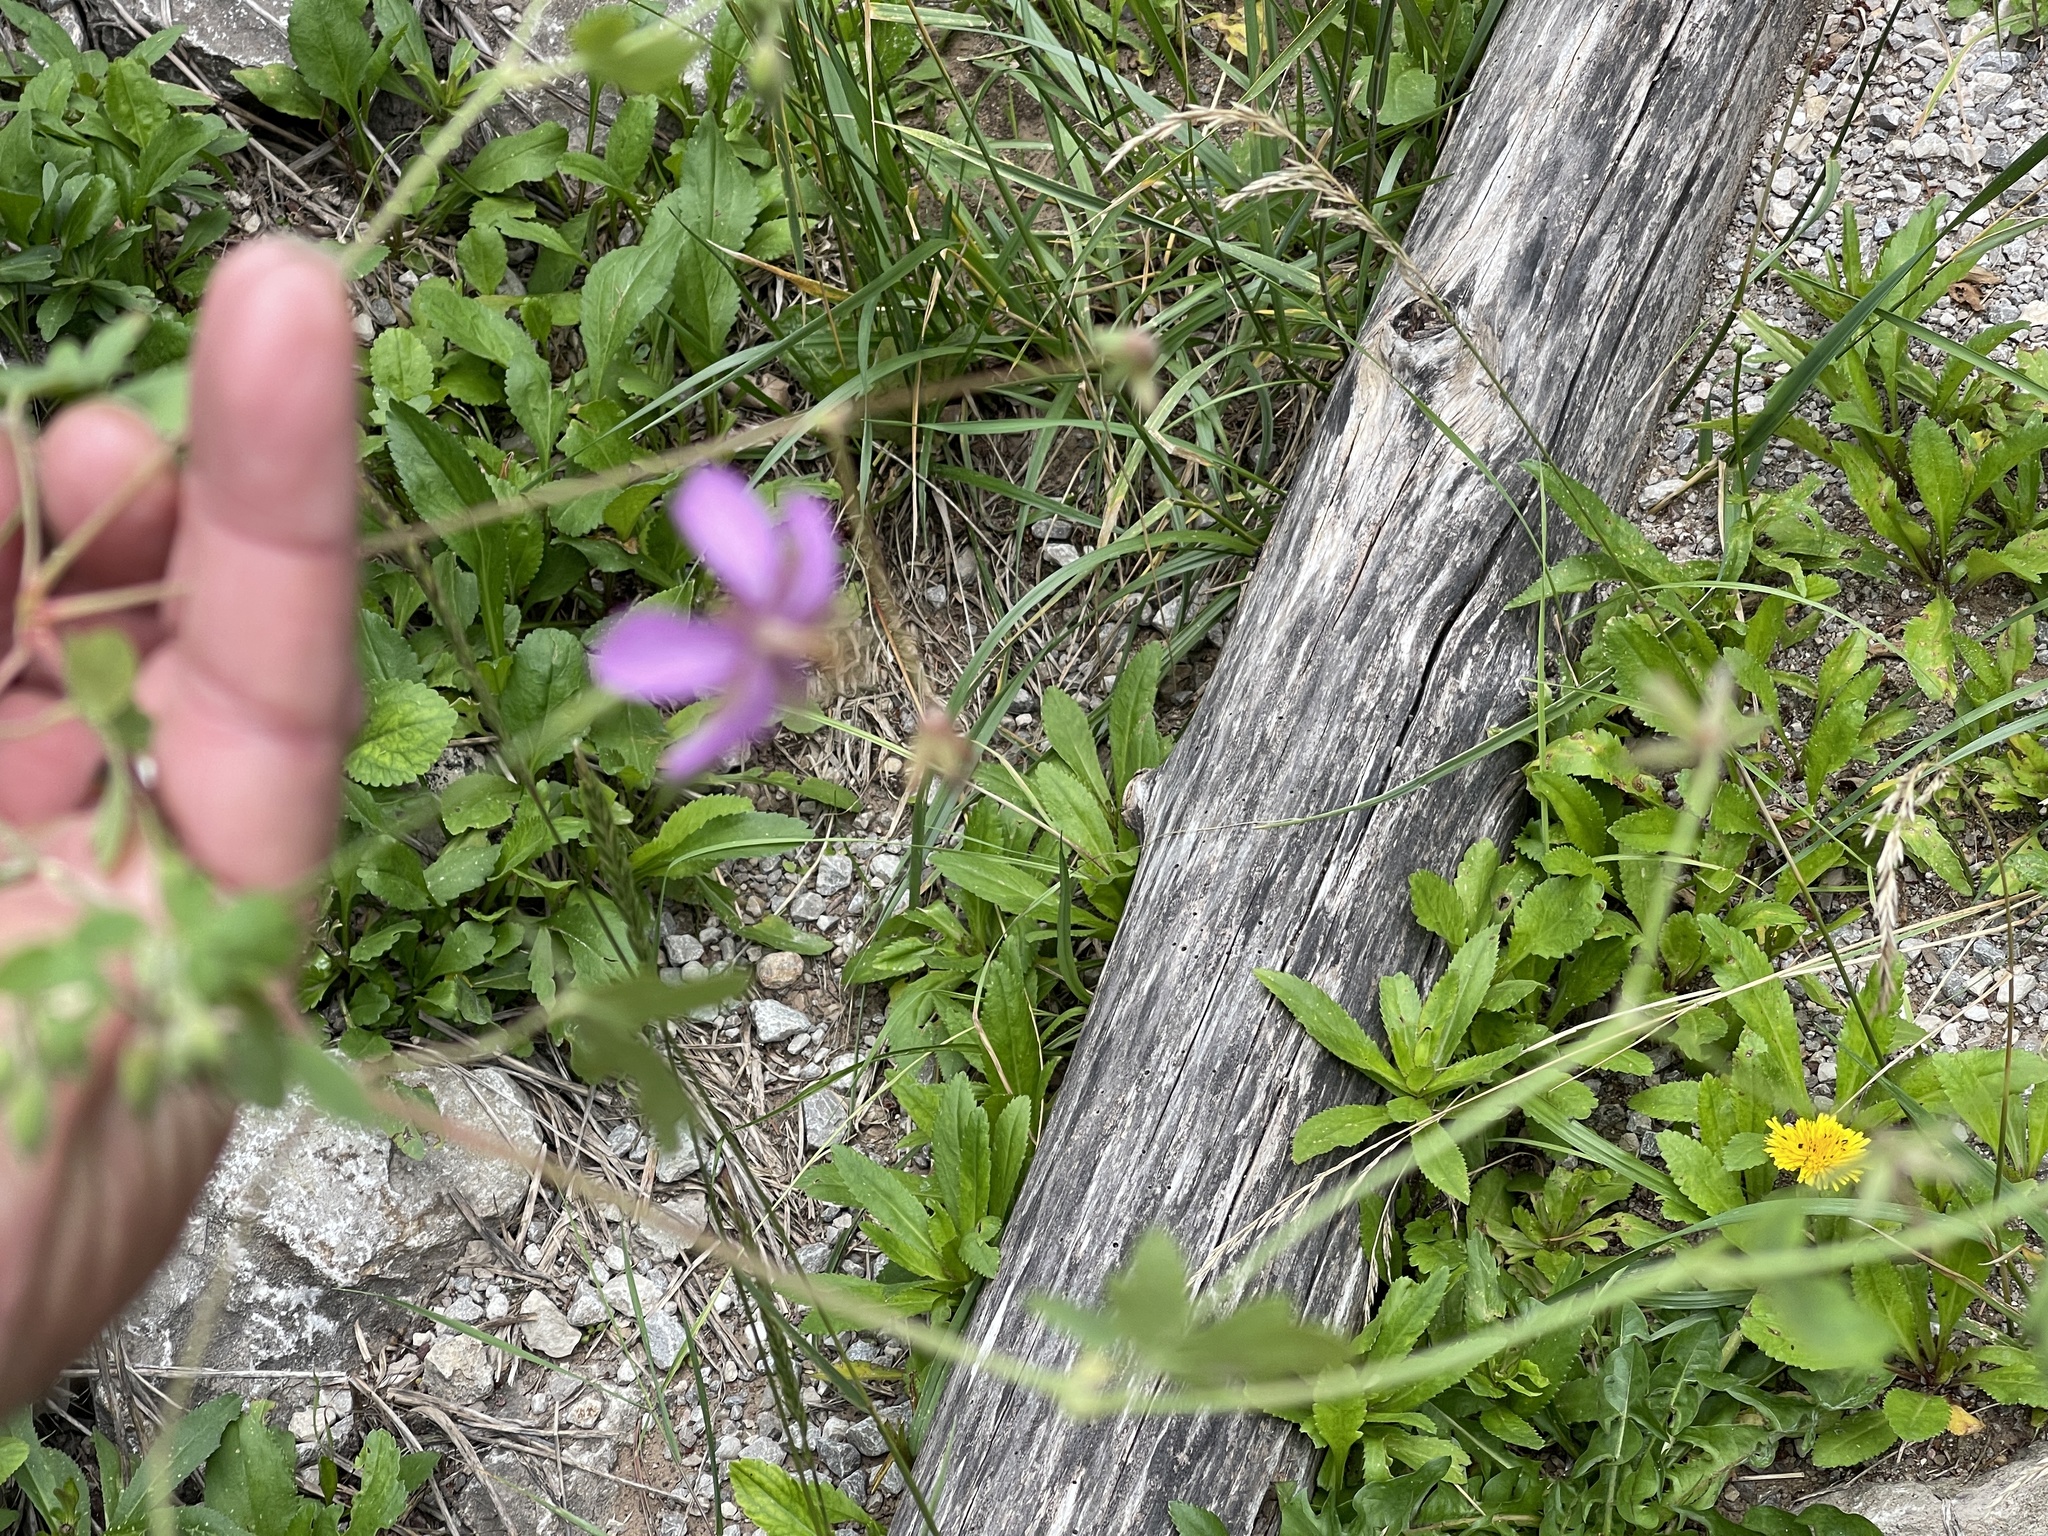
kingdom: Plantae
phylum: Tracheophyta
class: Magnoliopsida
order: Geraniales
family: Geraniaceae
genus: Geranium
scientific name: Geranium caespitosum
